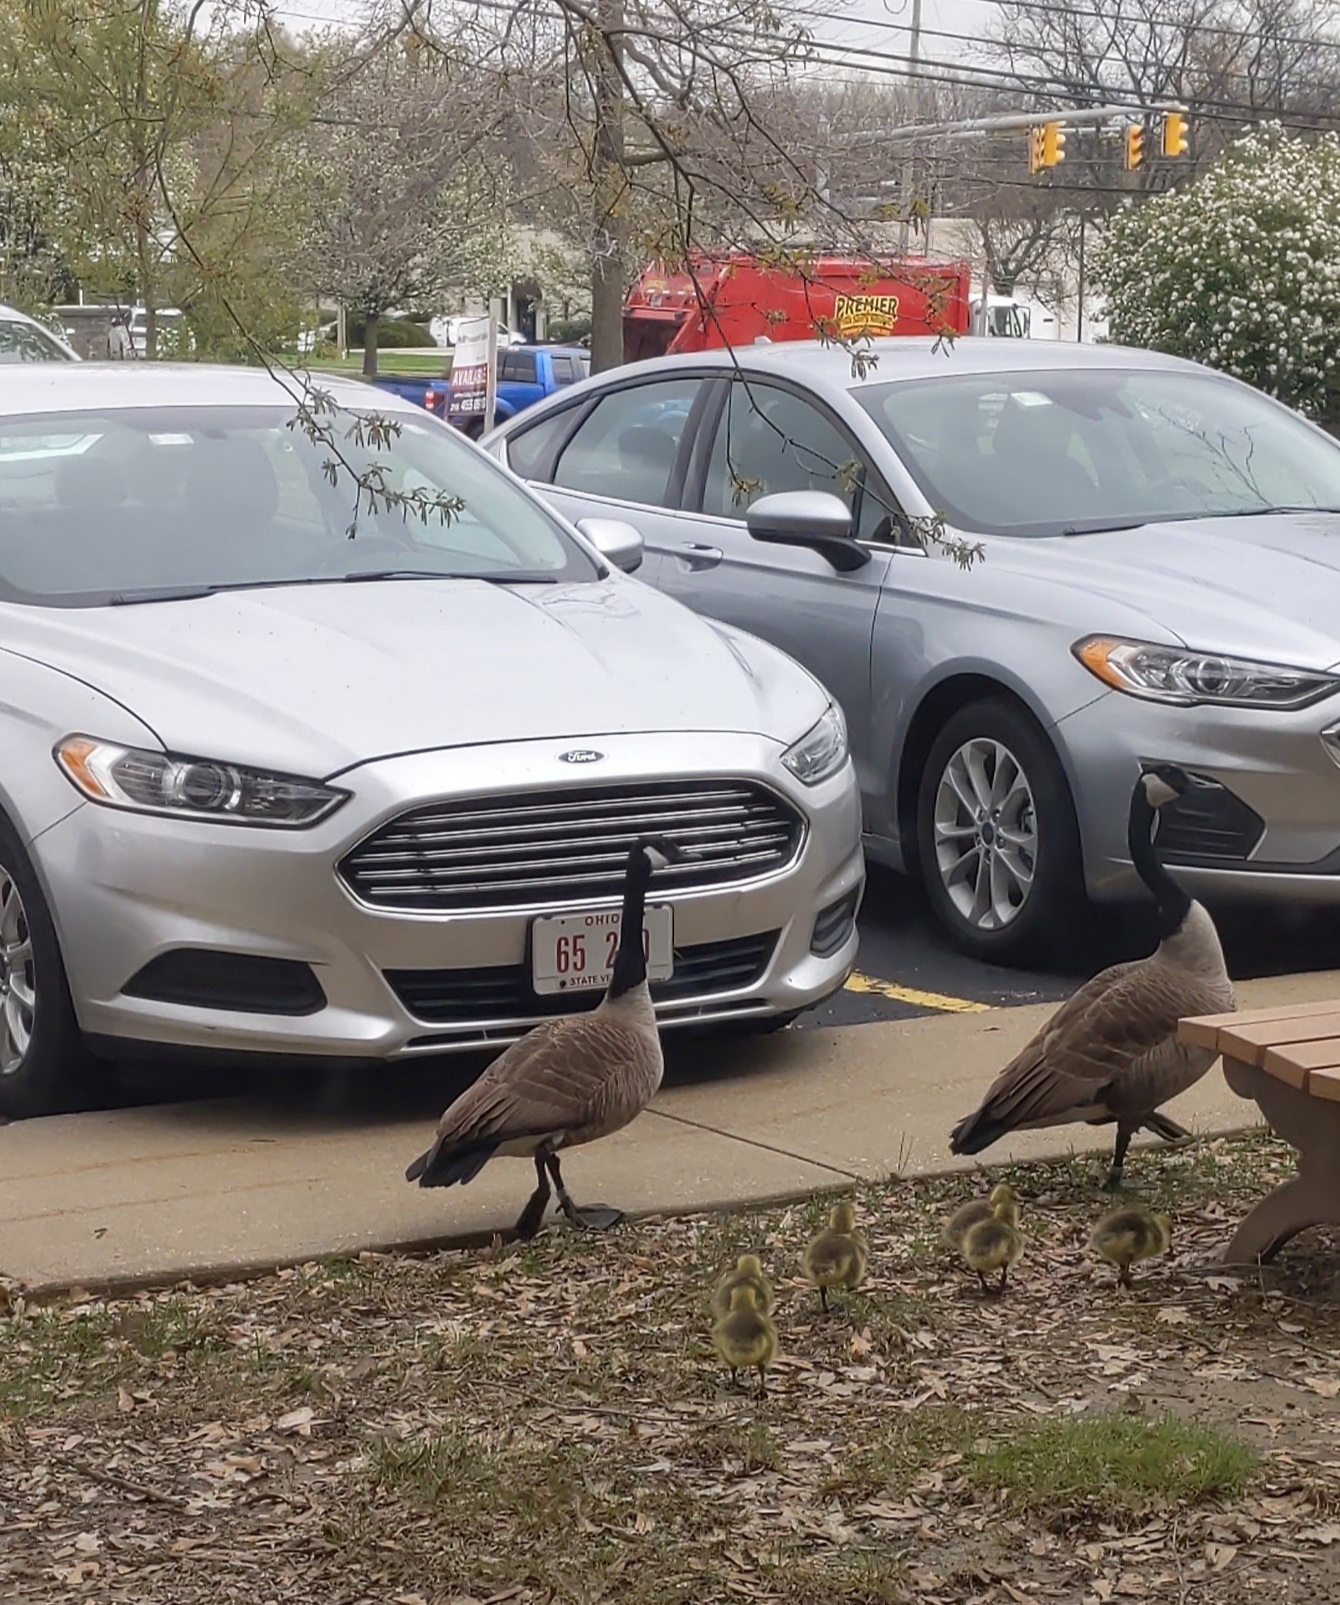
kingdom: Animalia
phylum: Chordata
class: Aves
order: Anseriformes
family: Anatidae
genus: Branta
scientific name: Branta canadensis
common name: Canada goose
